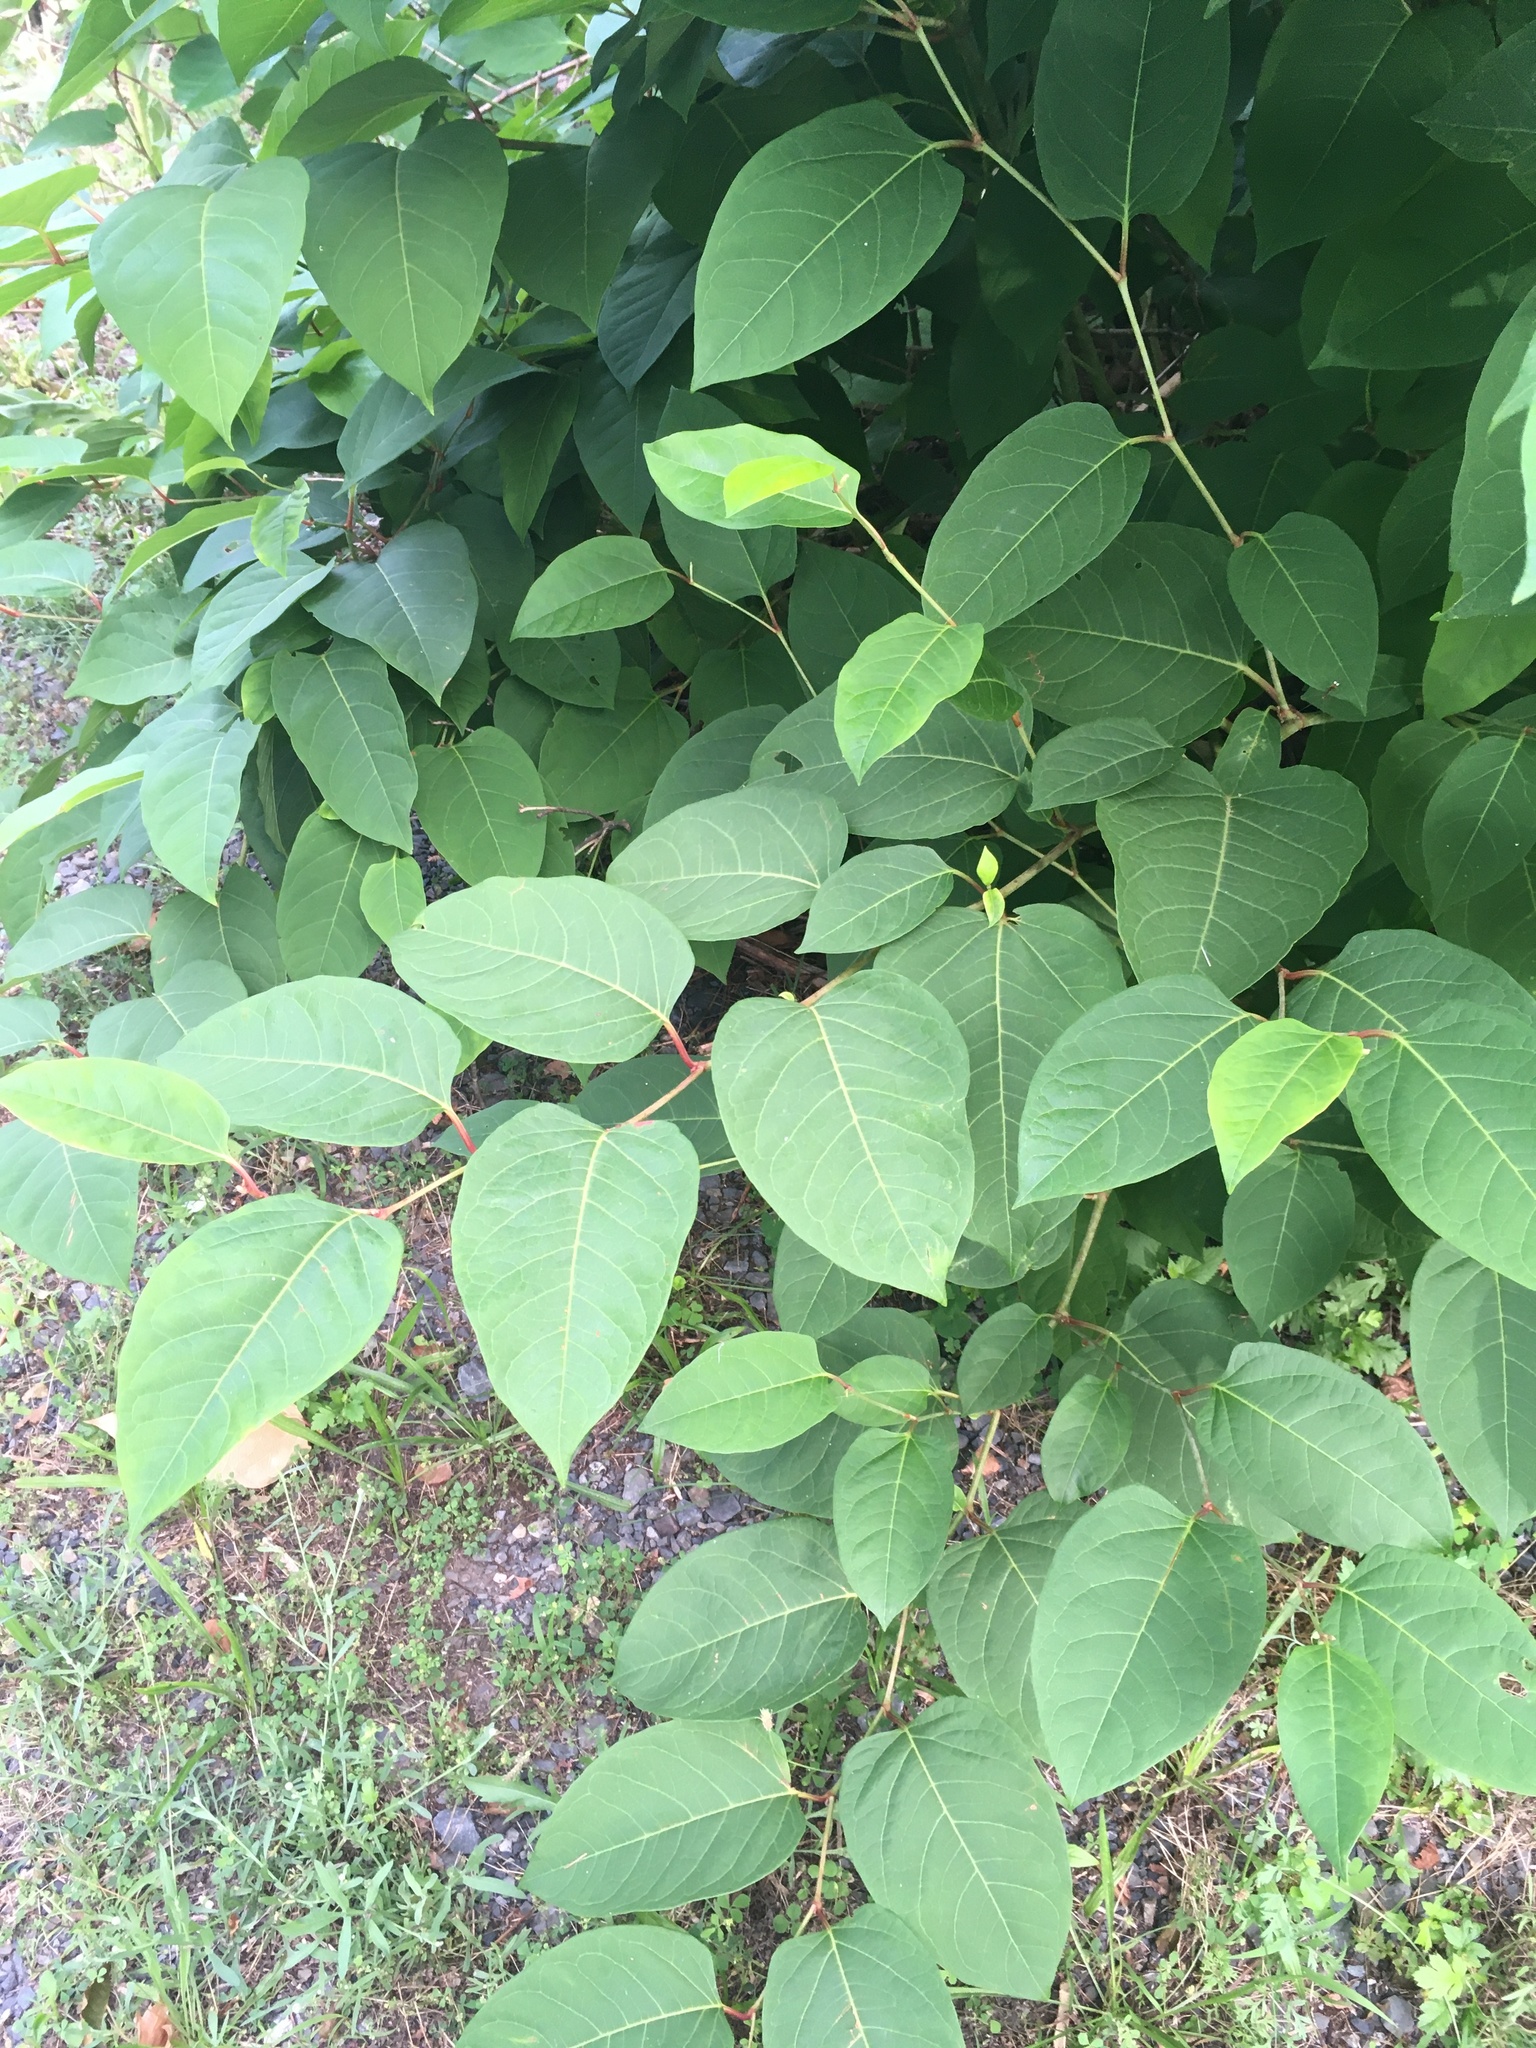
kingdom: Plantae
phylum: Tracheophyta
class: Magnoliopsida
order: Caryophyllales
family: Polygonaceae
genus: Reynoutria
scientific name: Reynoutria japonica
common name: Japanese knotweed
